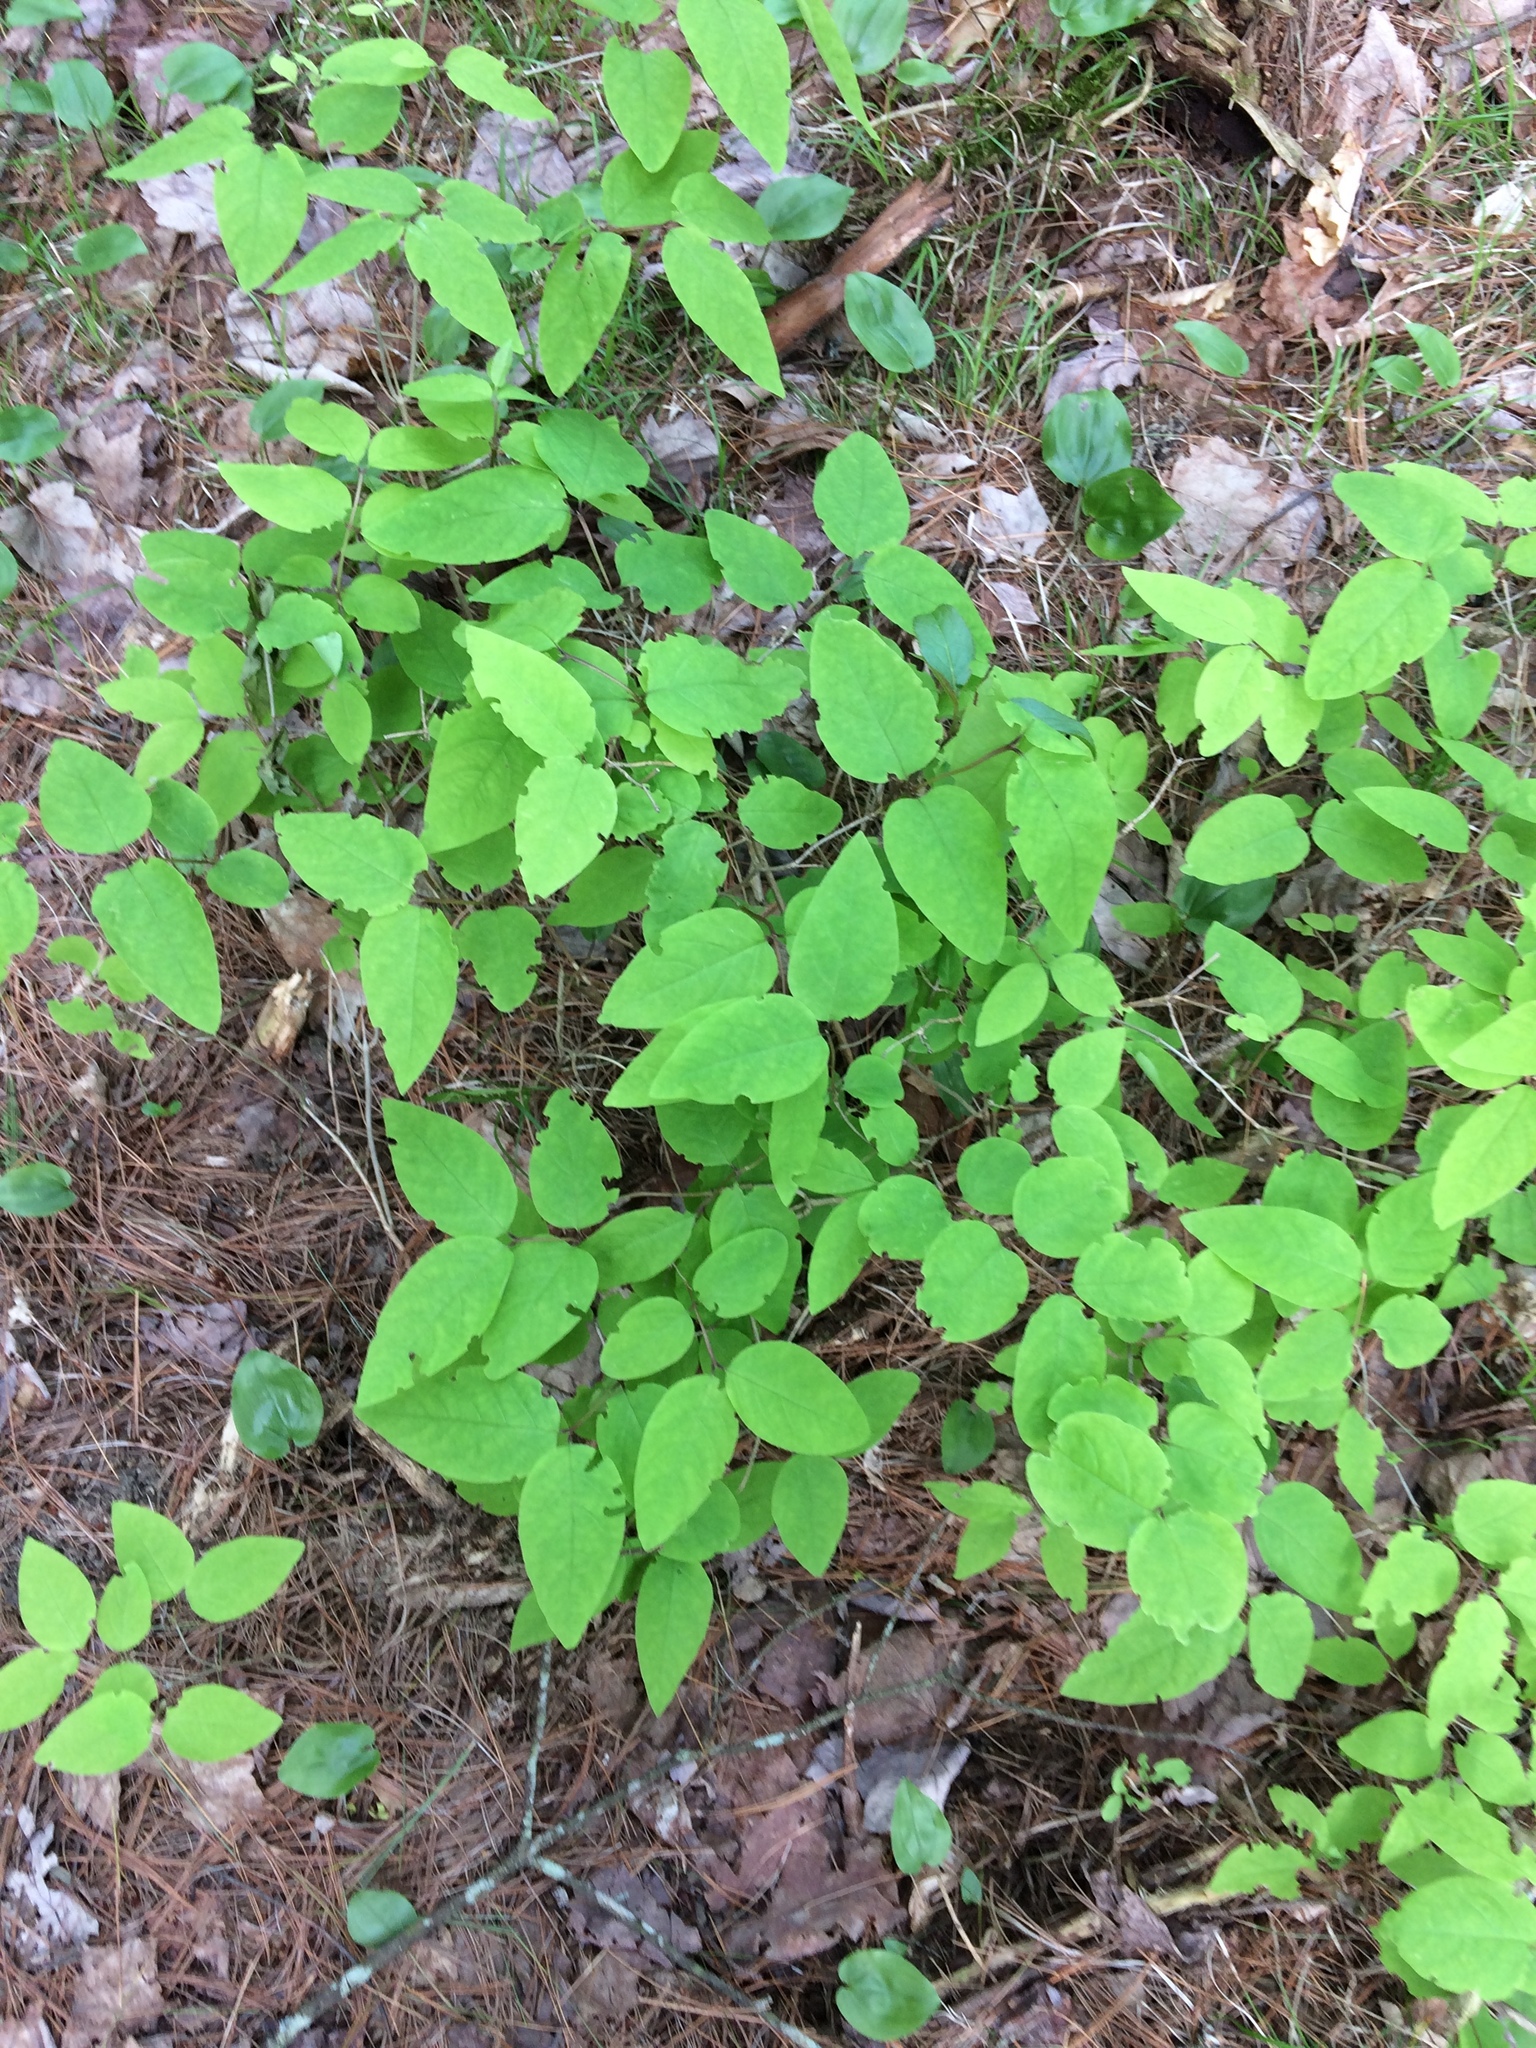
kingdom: Plantae
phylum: Tracheophyta
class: Magnoliopsida
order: Dipsacales
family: Caprifoliaceae
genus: Lonicera
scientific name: Lonicera canadensis
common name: American fly-honeysuckle
